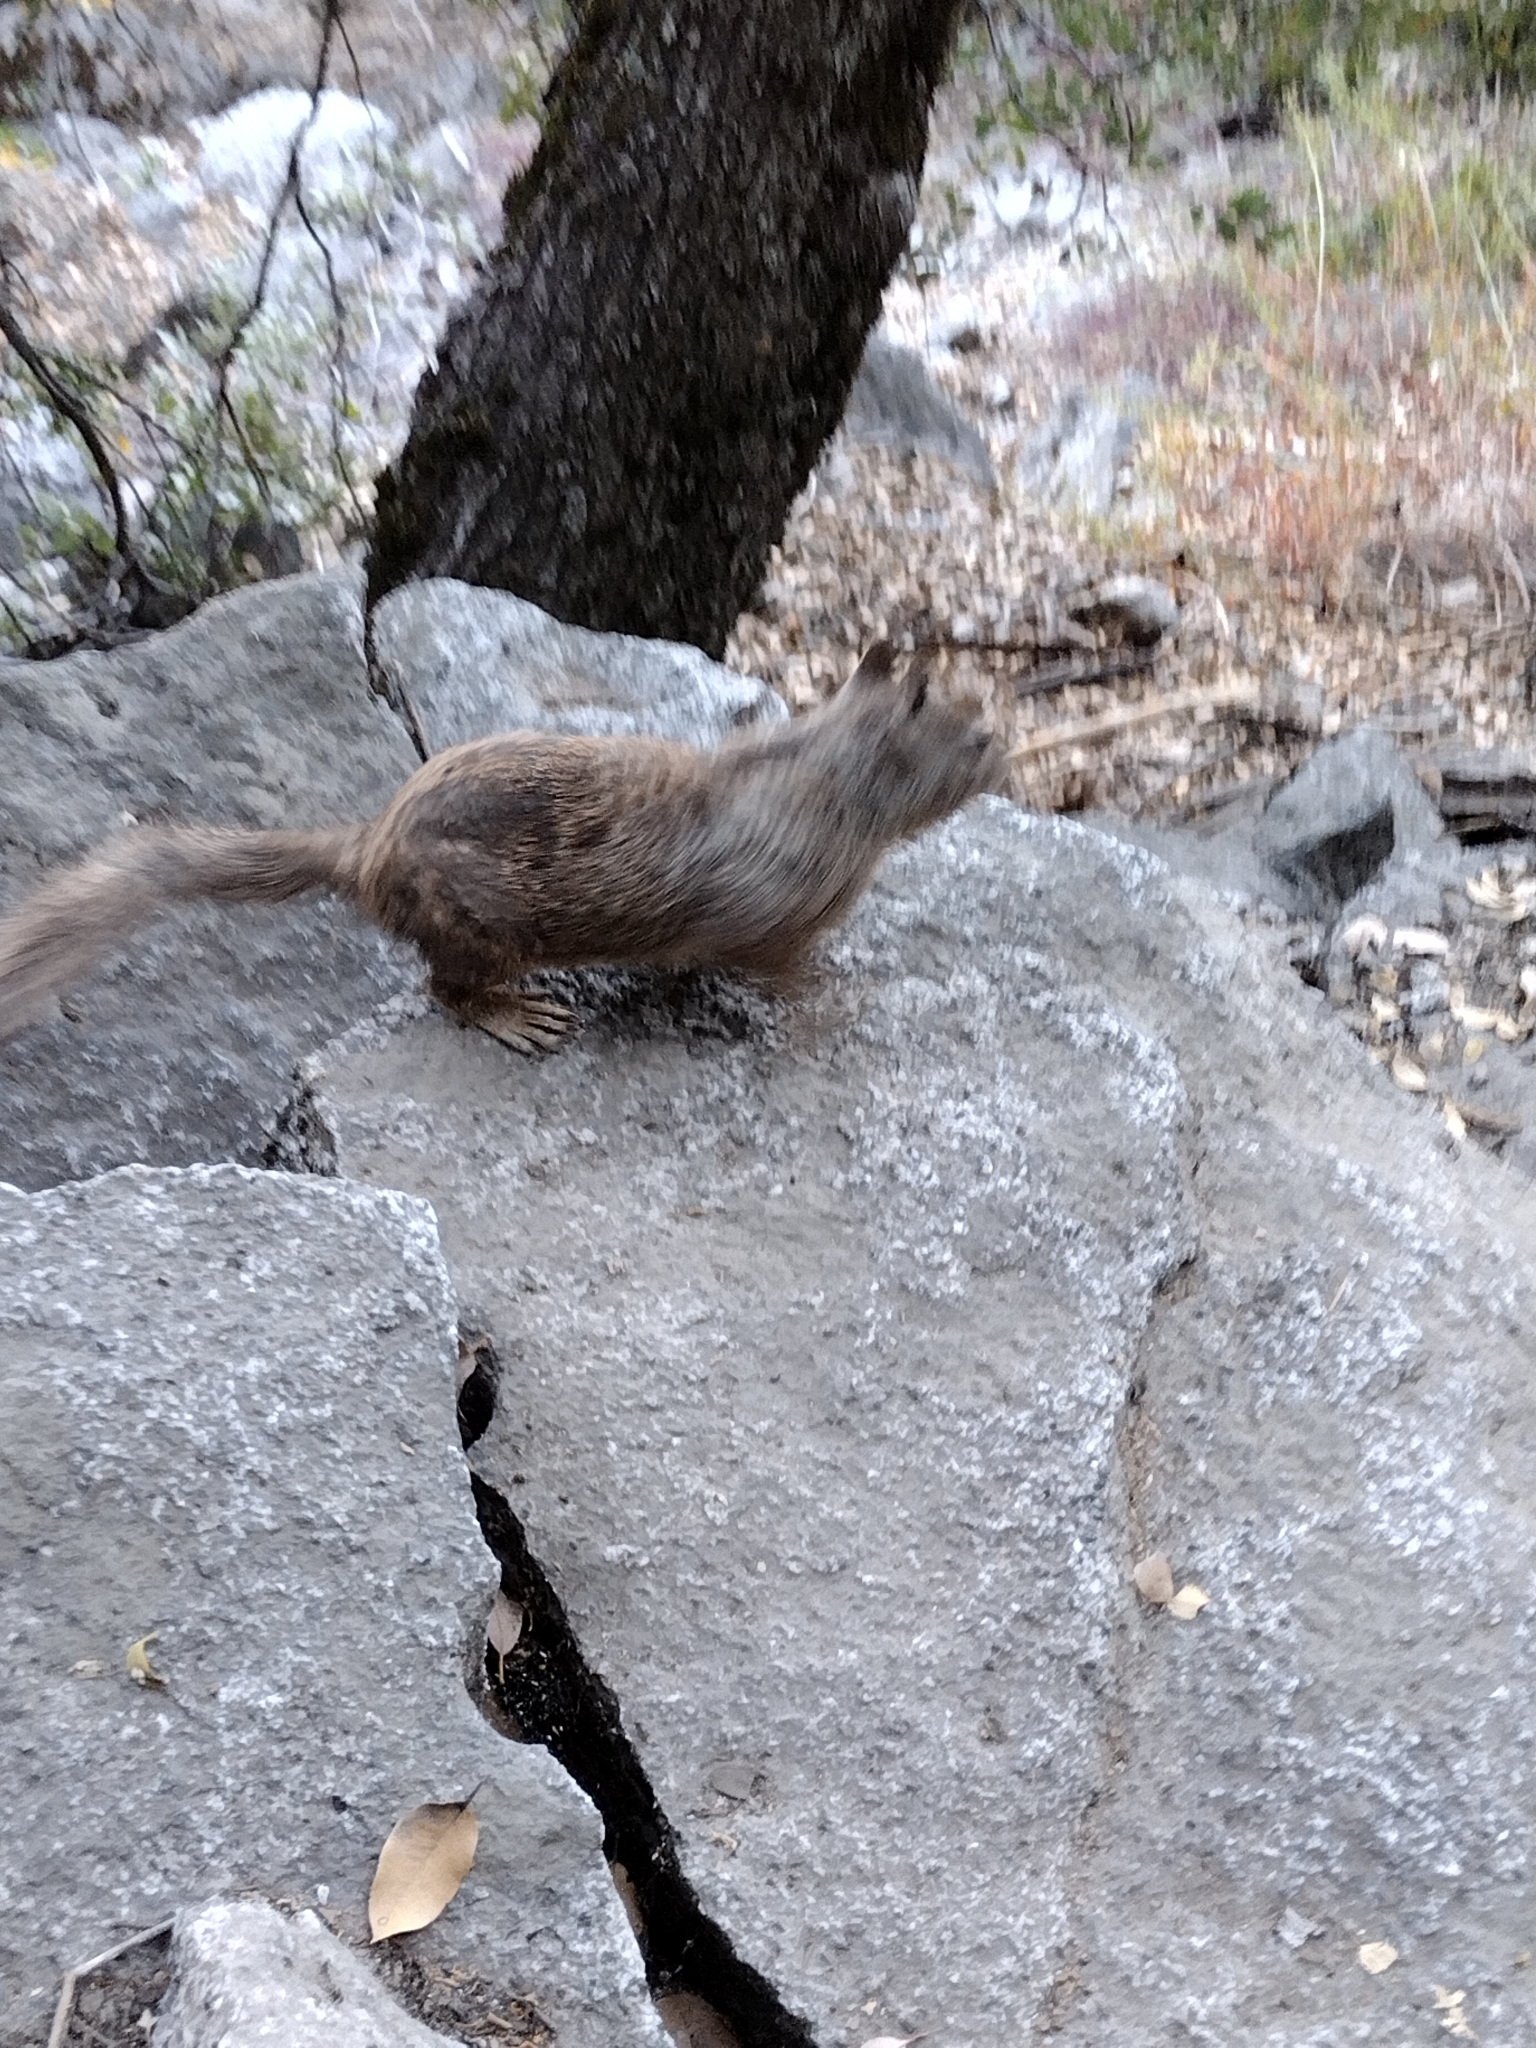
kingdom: Animalia
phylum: Chordata
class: Mammalia
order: Rodentia
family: Sciuridae
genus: Otospermophilus
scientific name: Otospermophilus beecheyi
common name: California ground squirrel
